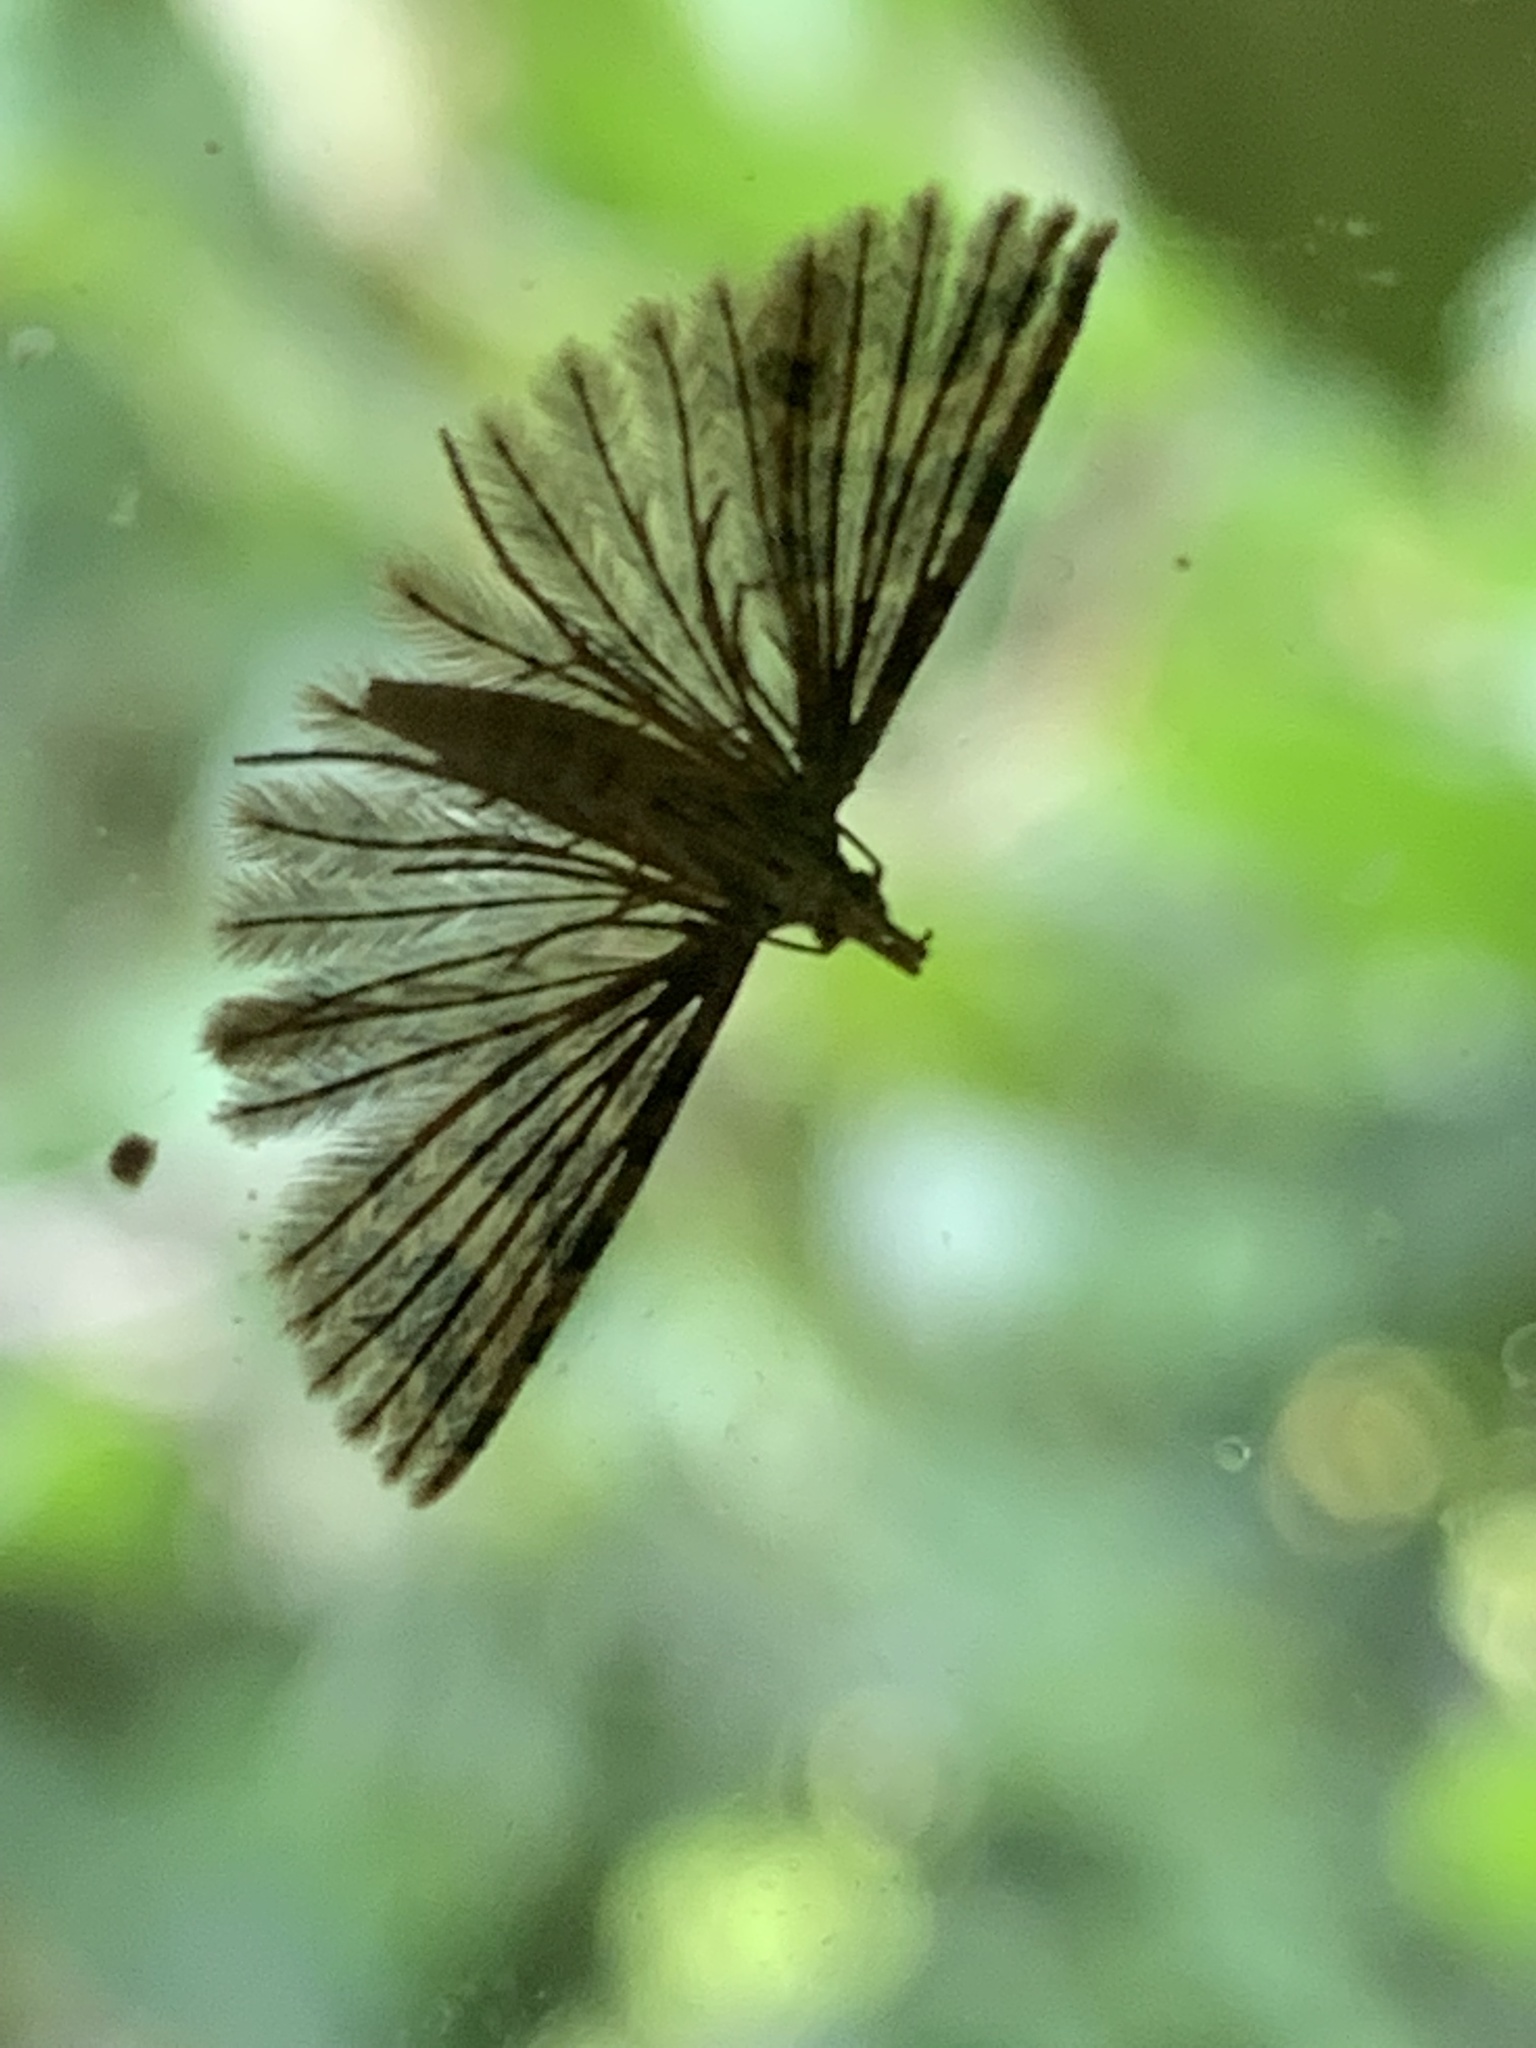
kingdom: Animalia
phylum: Arthropoda
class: Insecta
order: Lepidoptera
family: Alucitidae
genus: Alucita
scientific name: Alucita hexadactyla
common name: Twenty-plume moth
